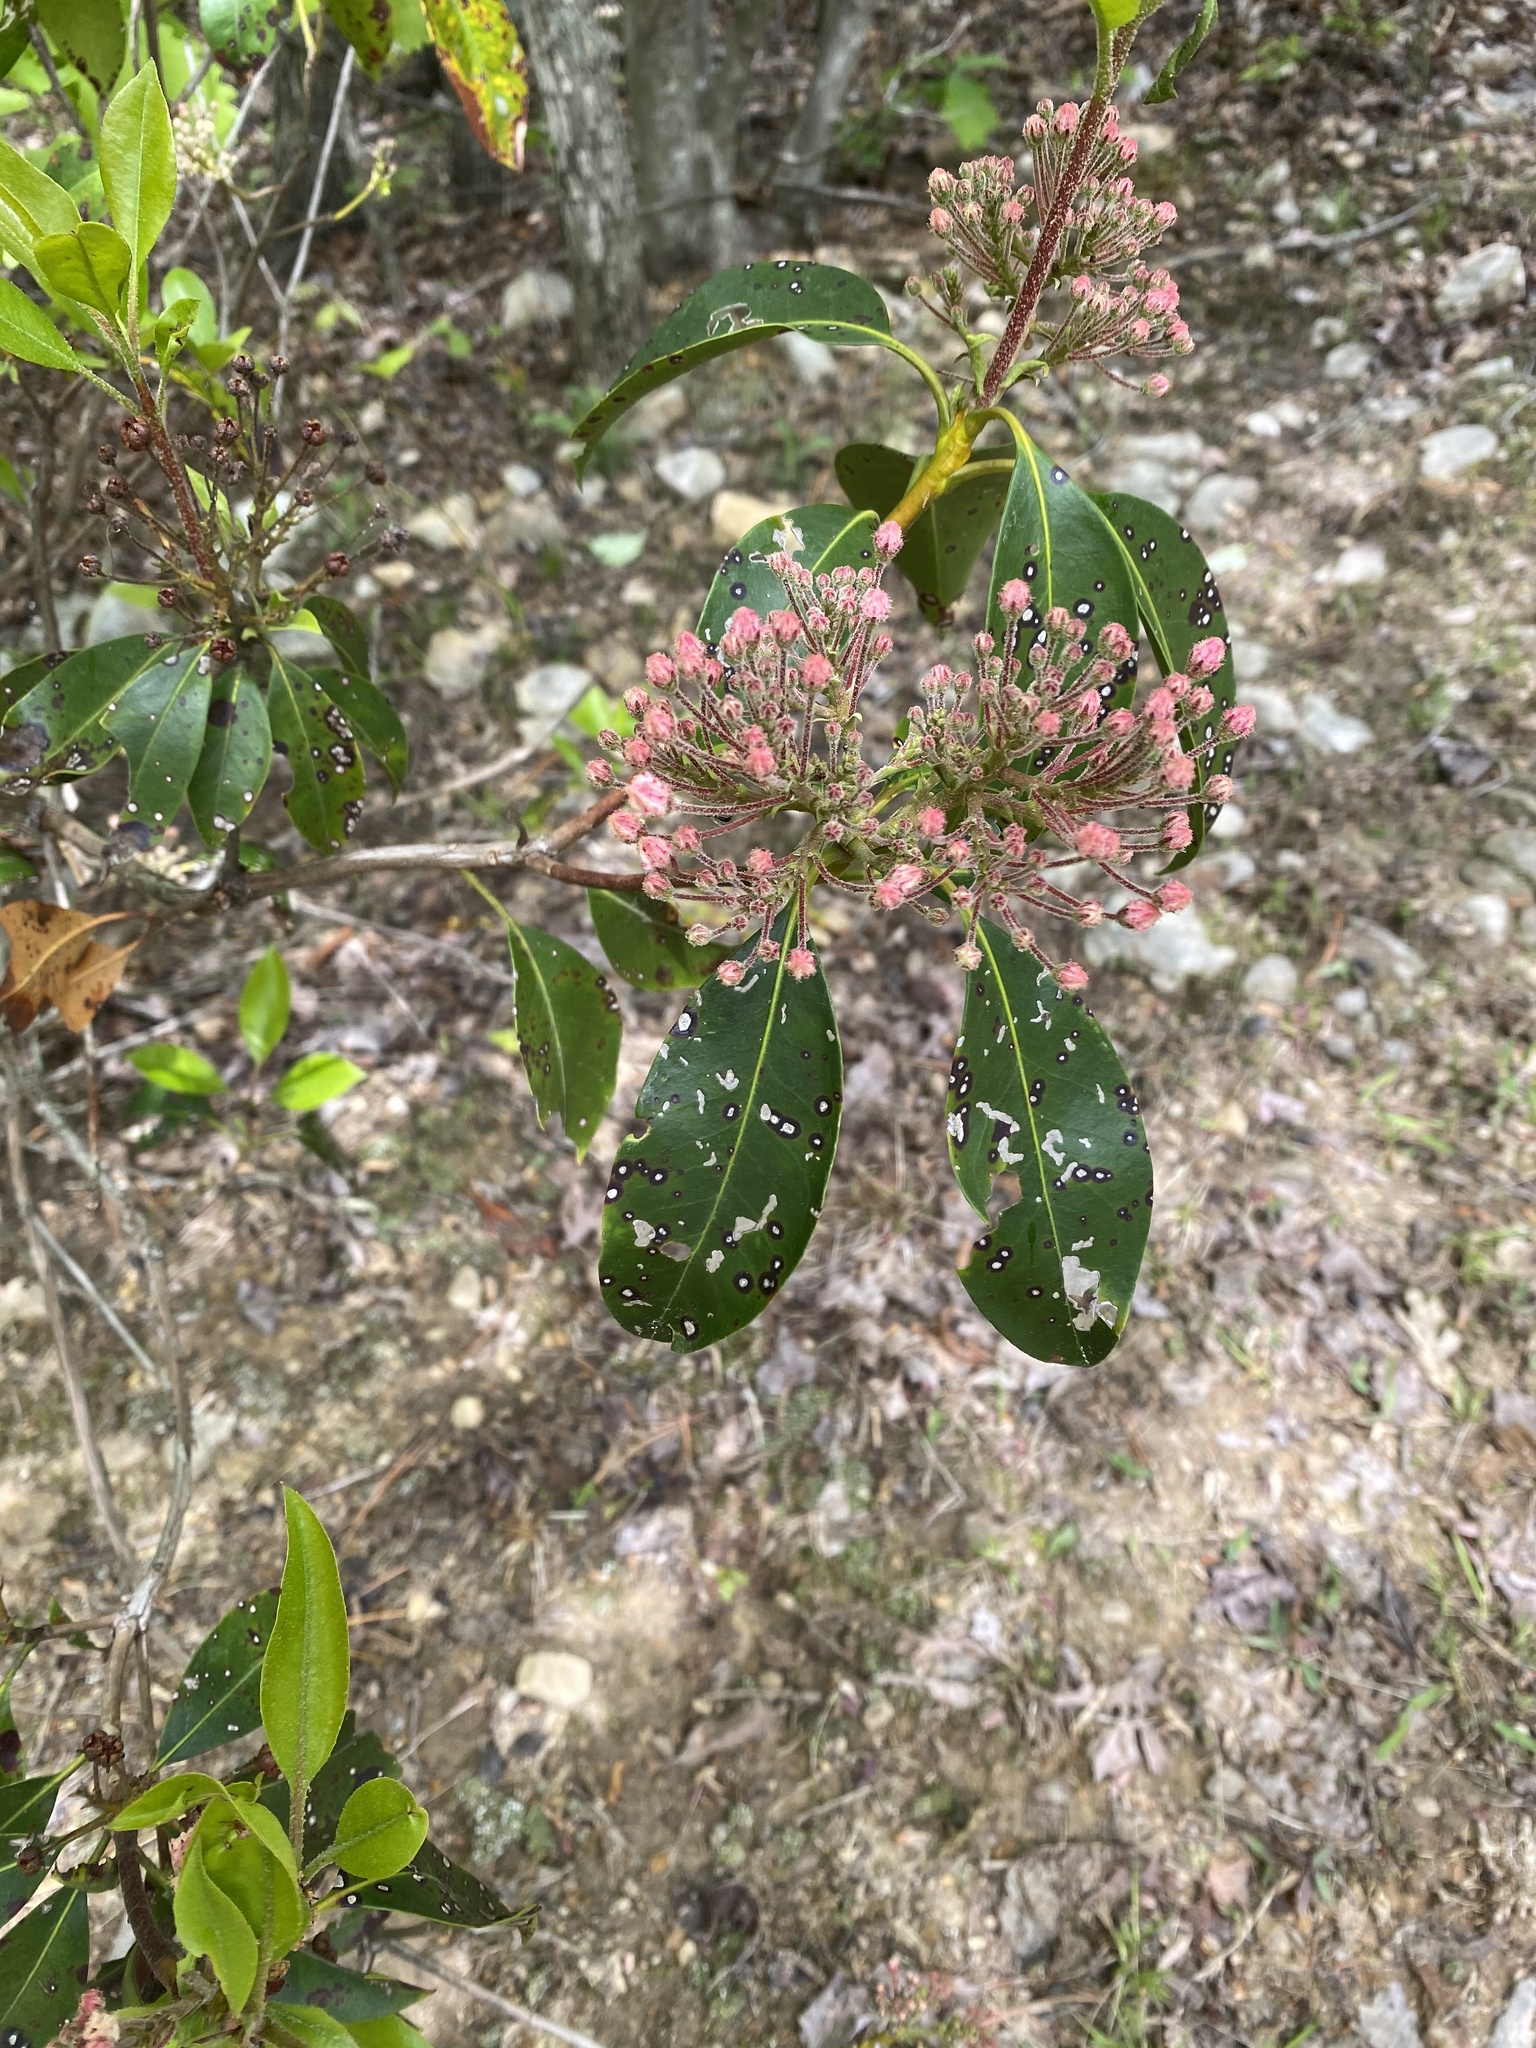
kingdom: Plantae
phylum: Tracheophyta
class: Magnoliopsida
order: Ericales
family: Ericaceae
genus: Kalmia
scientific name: Kalmia latifolia
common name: Mountain-laurel
